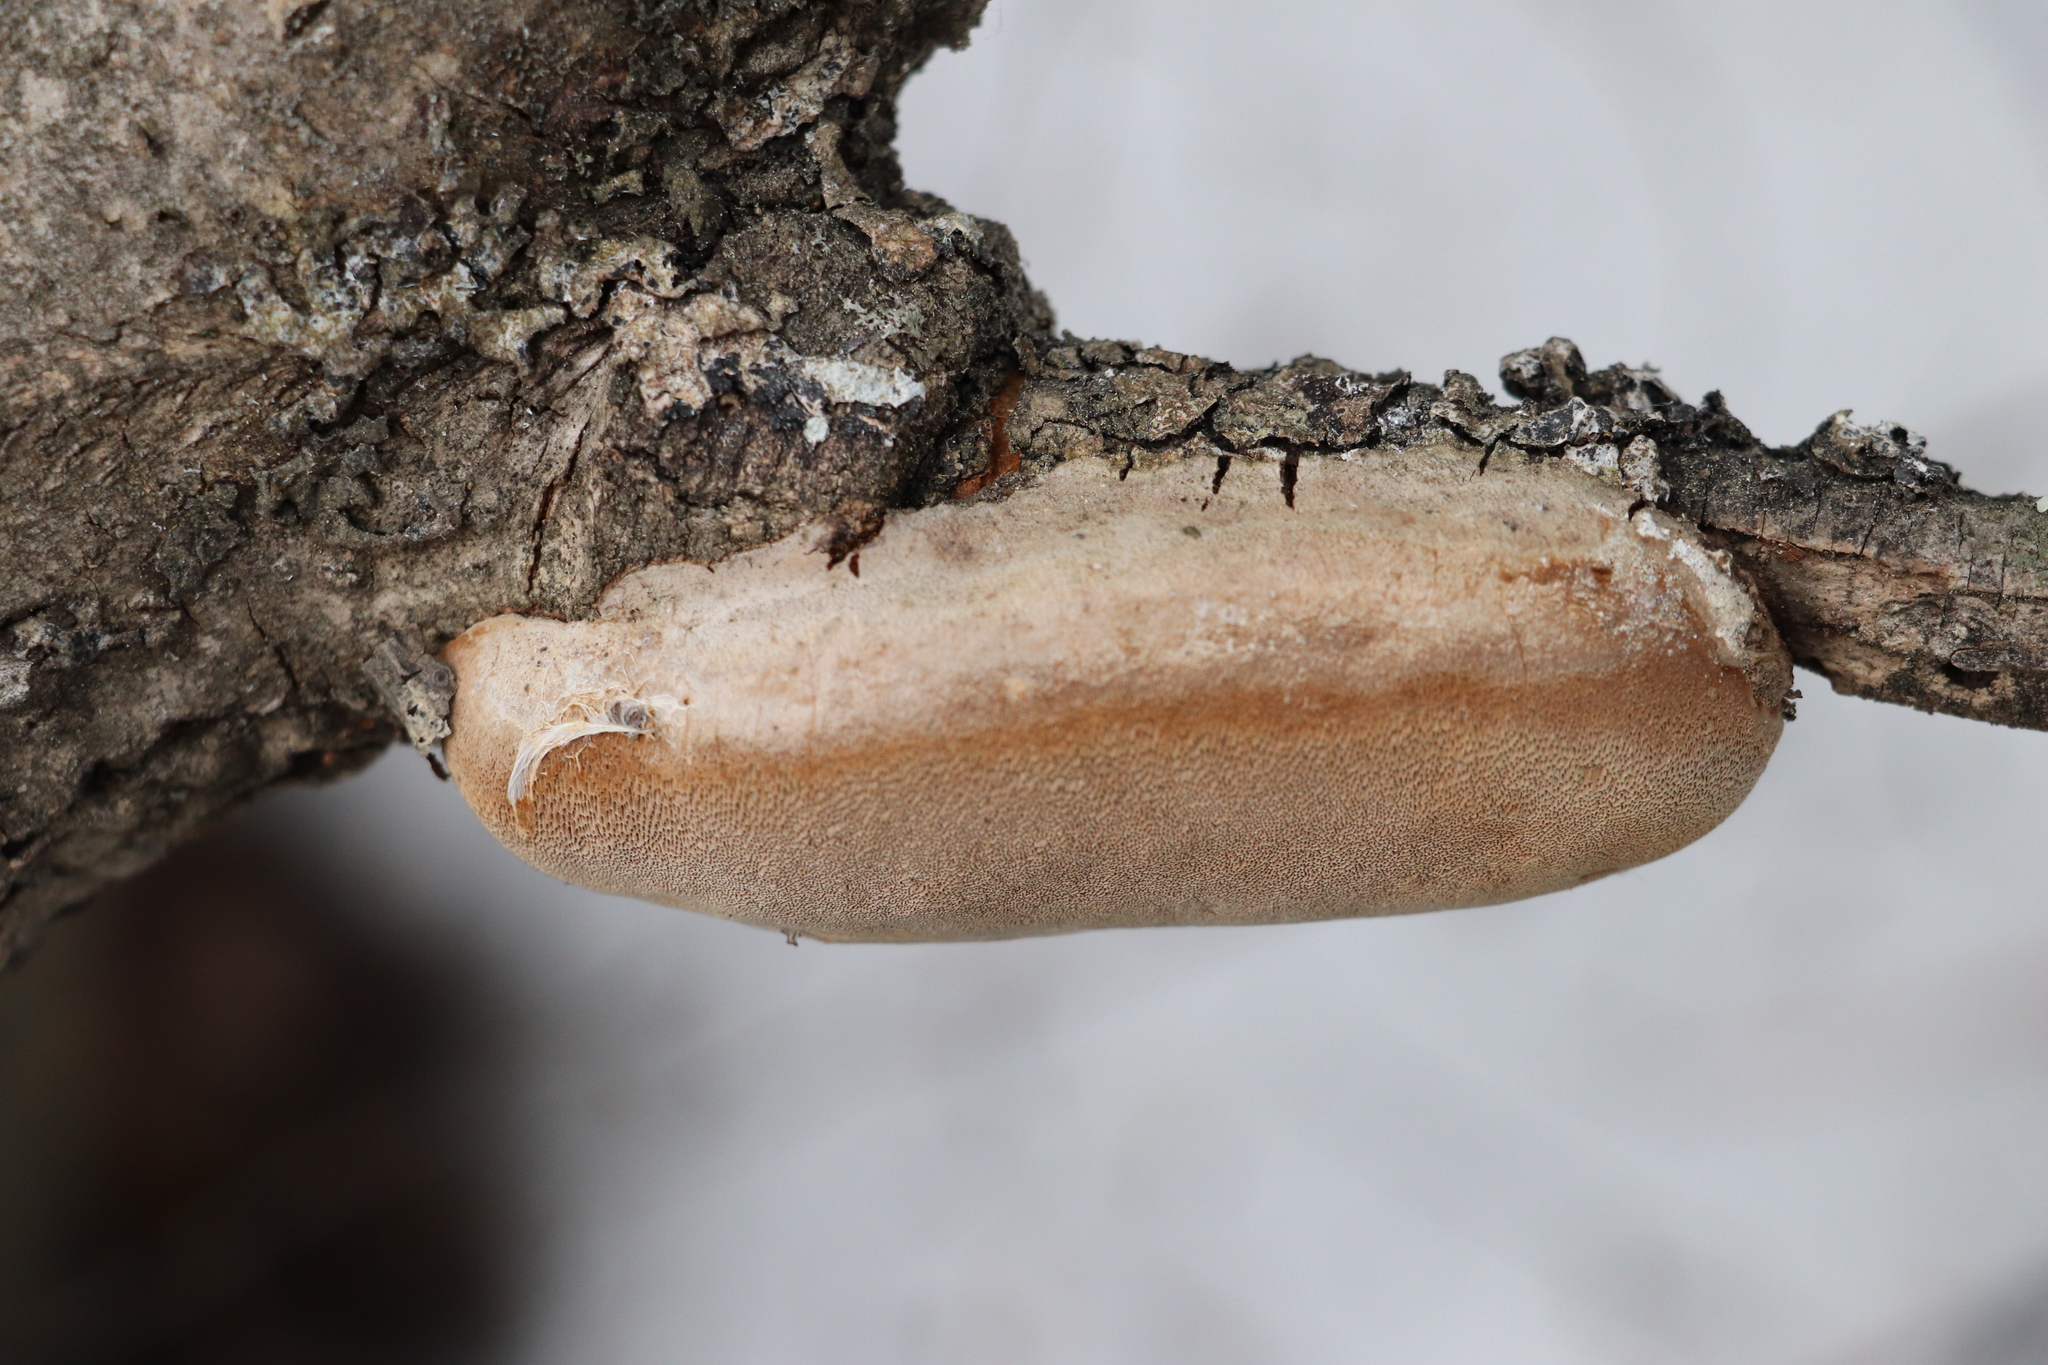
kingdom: Fungi
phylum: Basidiomycota
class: Agaricomycetes
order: Hymenochaetales
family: Hymenochaetaceae
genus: Phellinus
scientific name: Phellinus tremulae
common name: Aspen bracket
